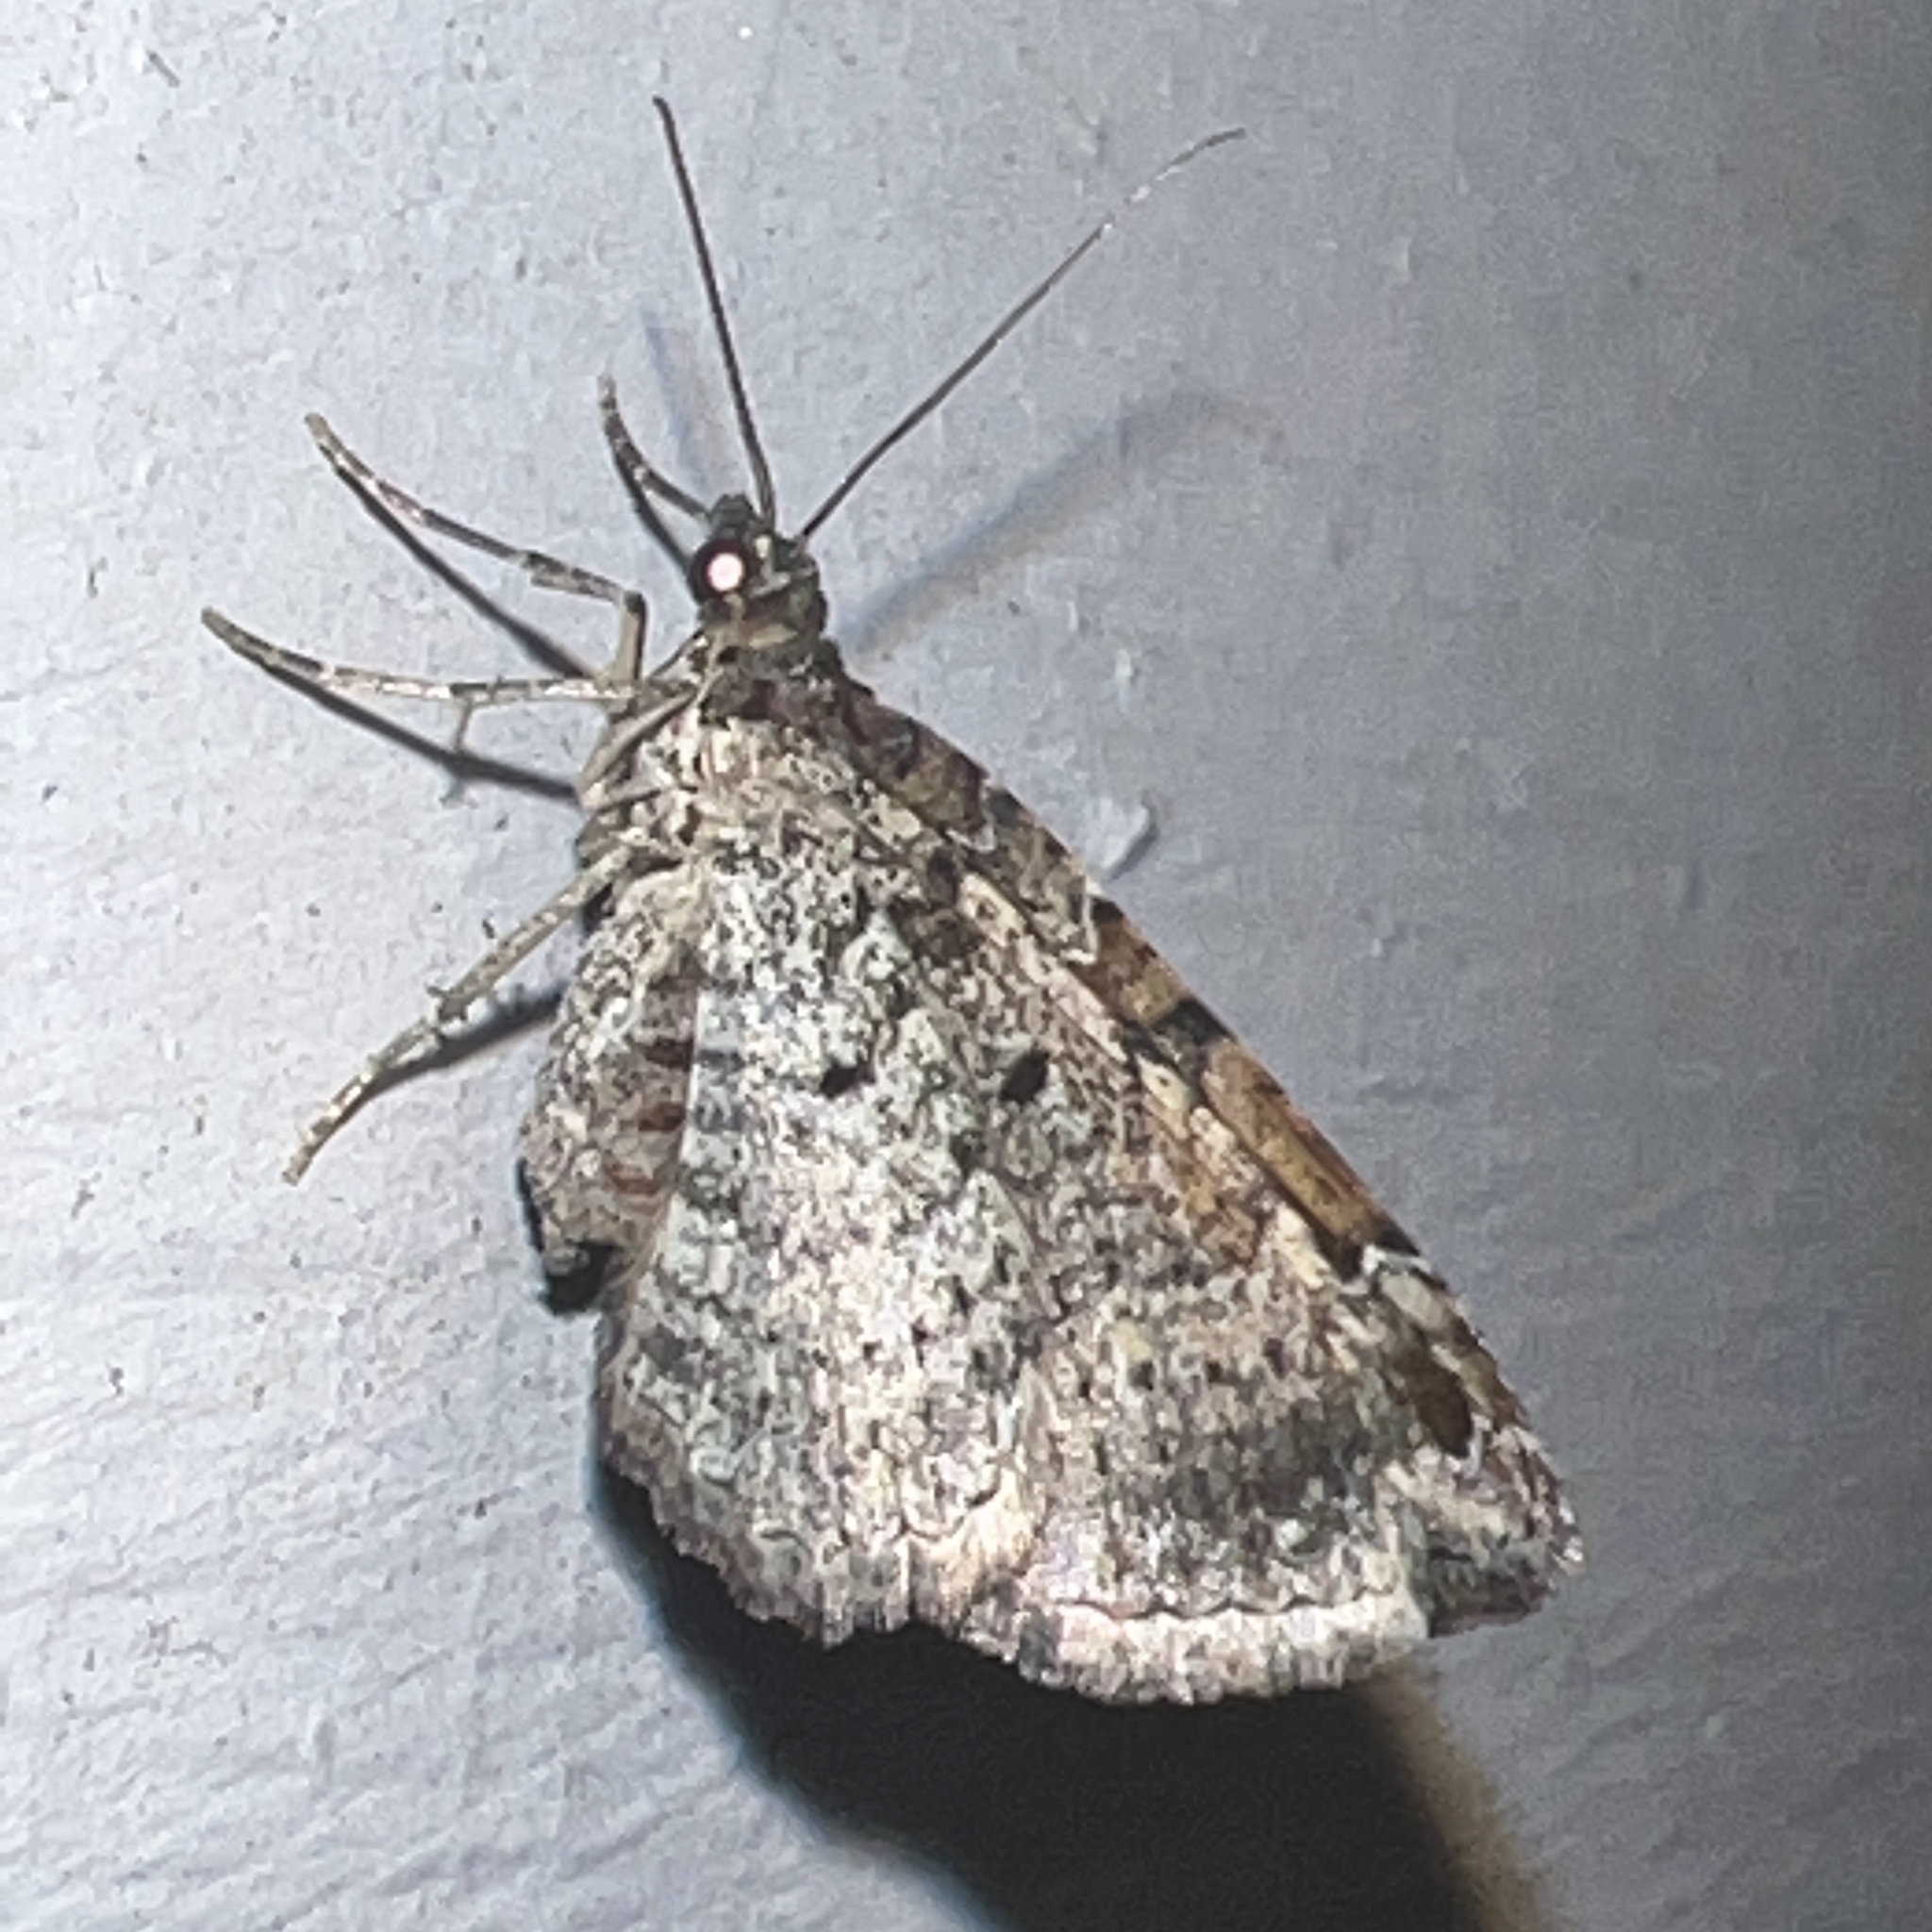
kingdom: Animalia
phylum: Arthropoda
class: Insecta
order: Lepidoptera
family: Geometridae
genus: Costaconvexa
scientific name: Costaconvexa centrostrigaria
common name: Bent-line carpet
